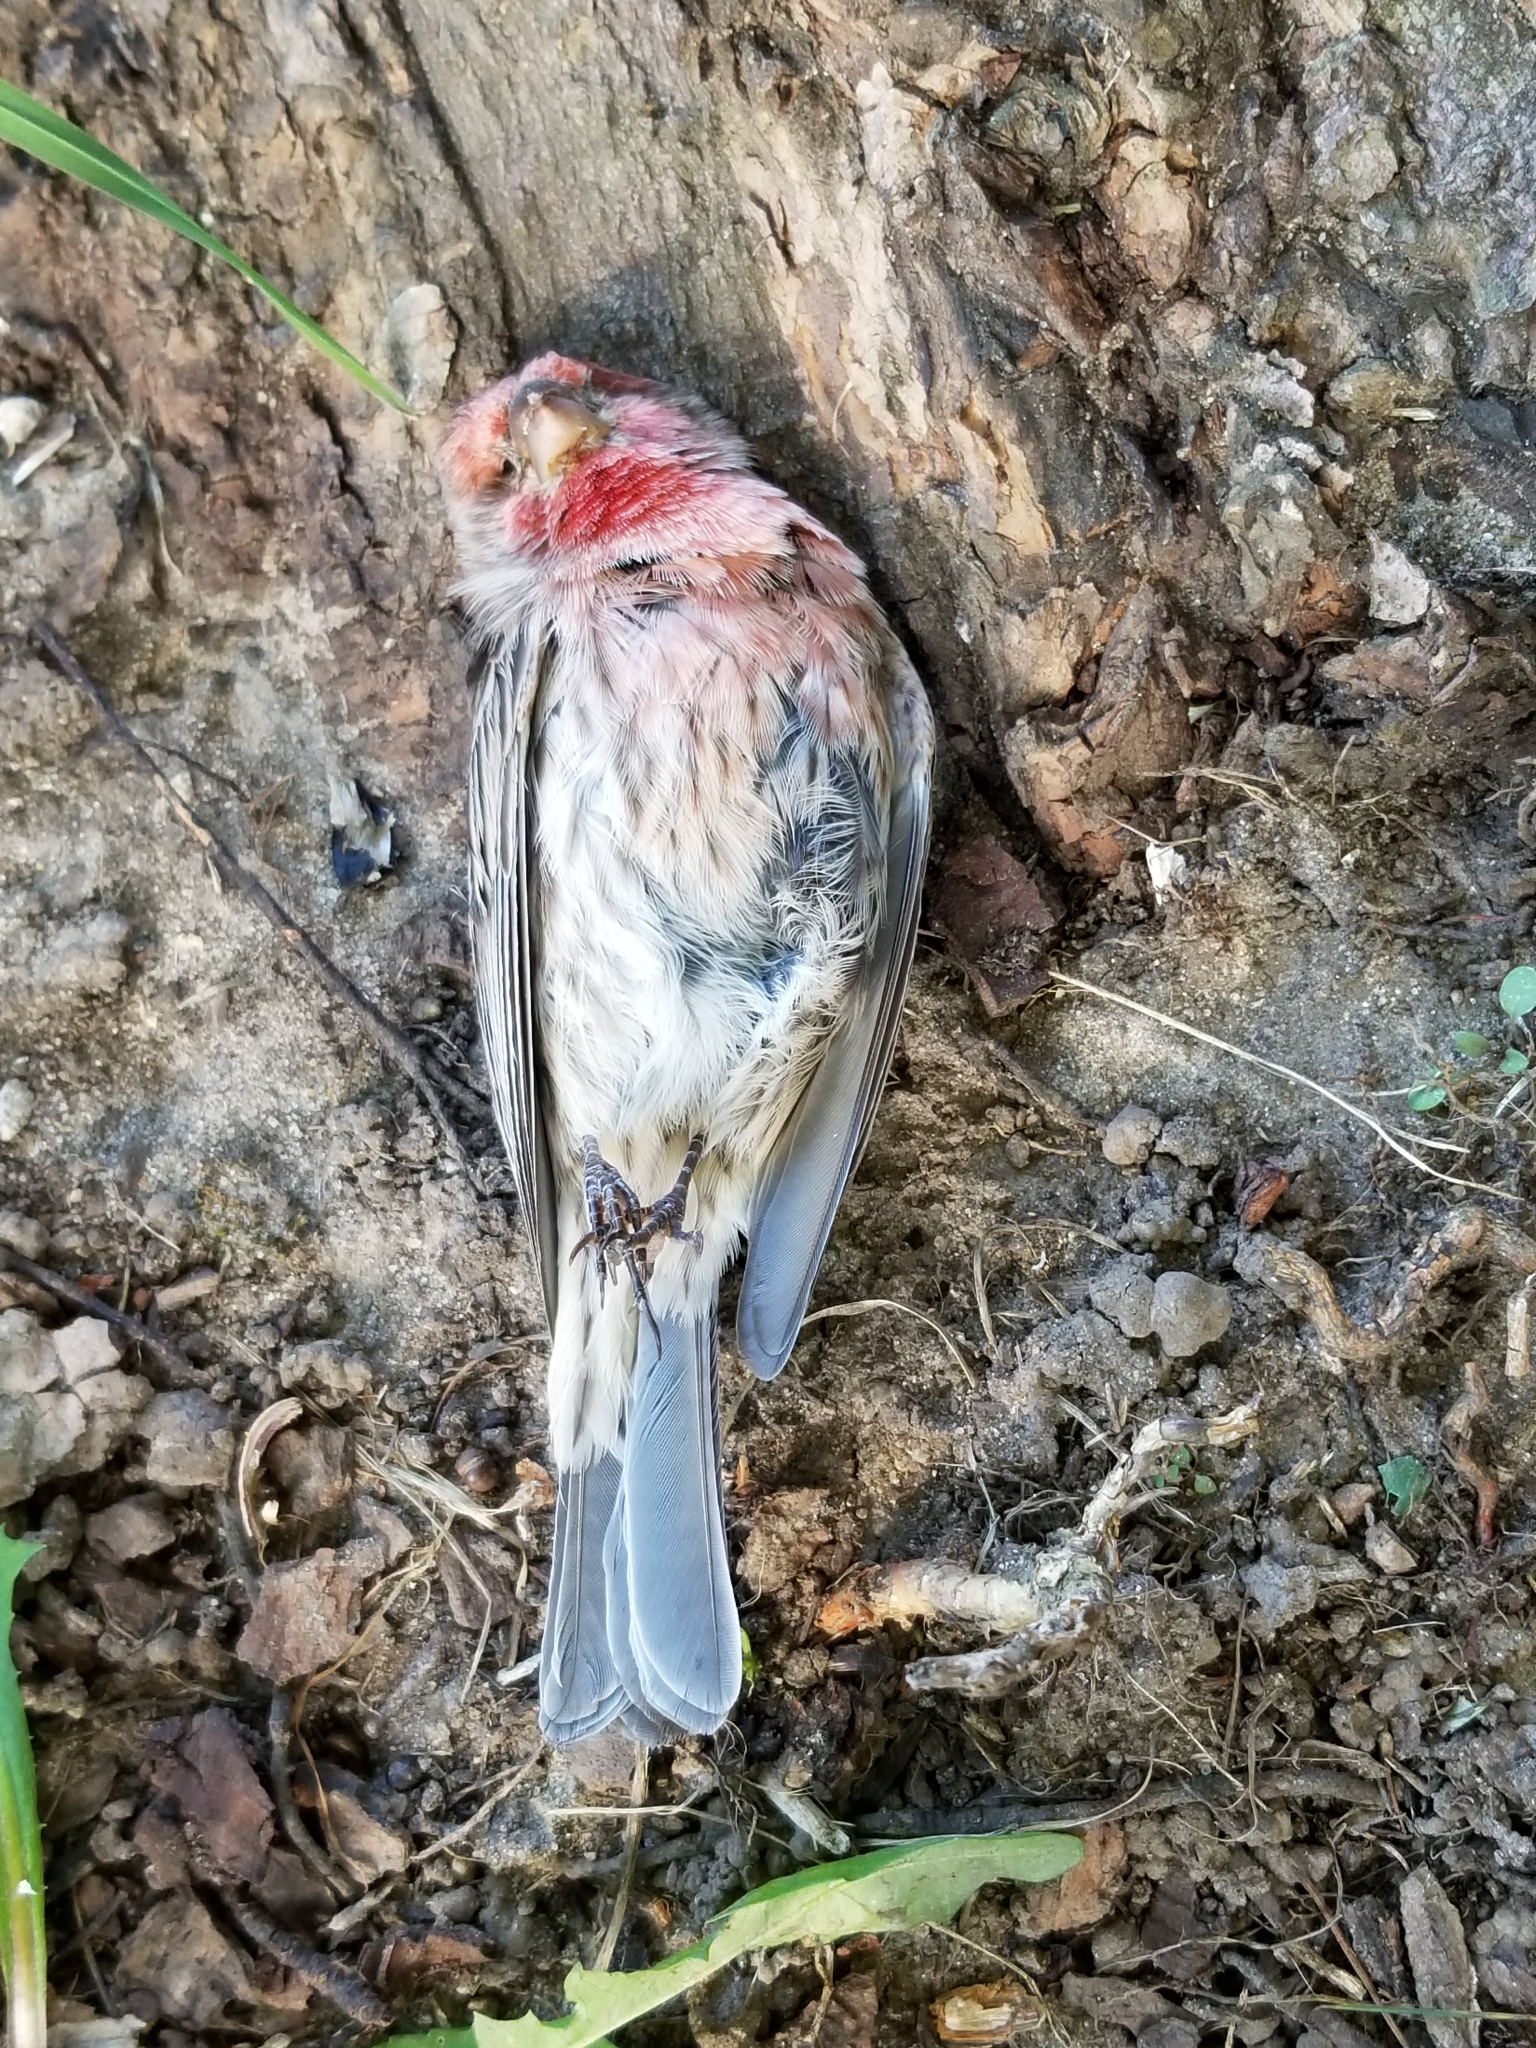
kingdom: Animalia
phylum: Chordata
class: Aves
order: Passeriformes
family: Fringillidae
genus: Haemorhous
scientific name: Haemorhous mexicanus
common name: House finch
